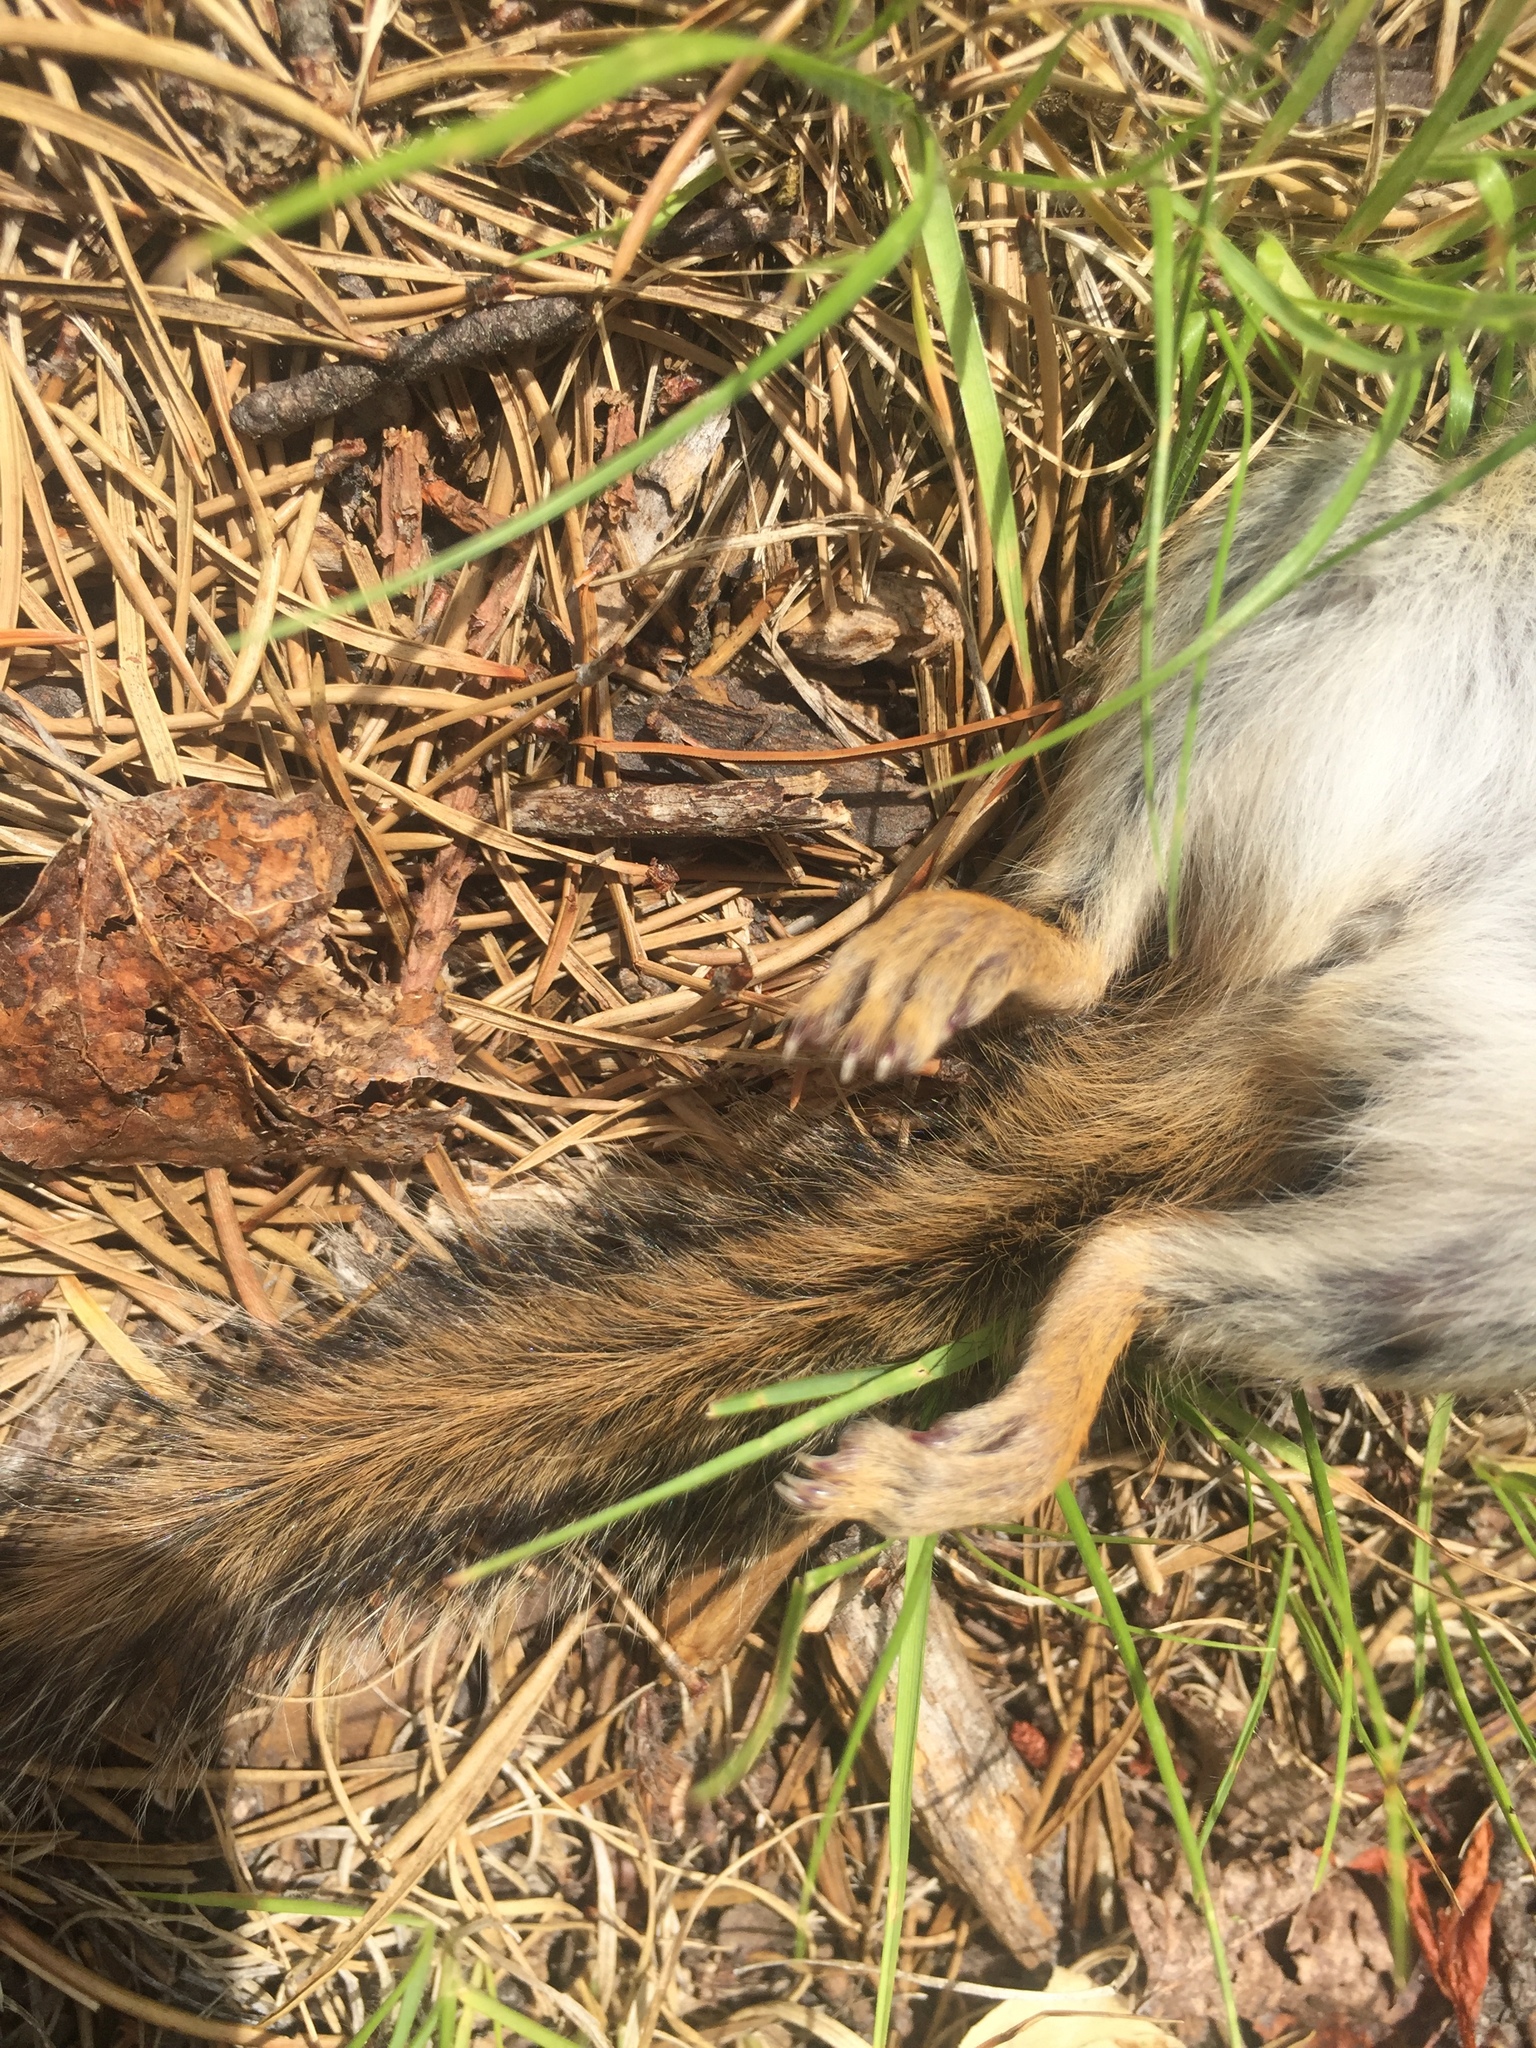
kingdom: Animalia
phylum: Chordata
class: Mammalia
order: Rodentia
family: Sciuridae
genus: Tamias
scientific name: Tamias striatus
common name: Eastern chipmunk
